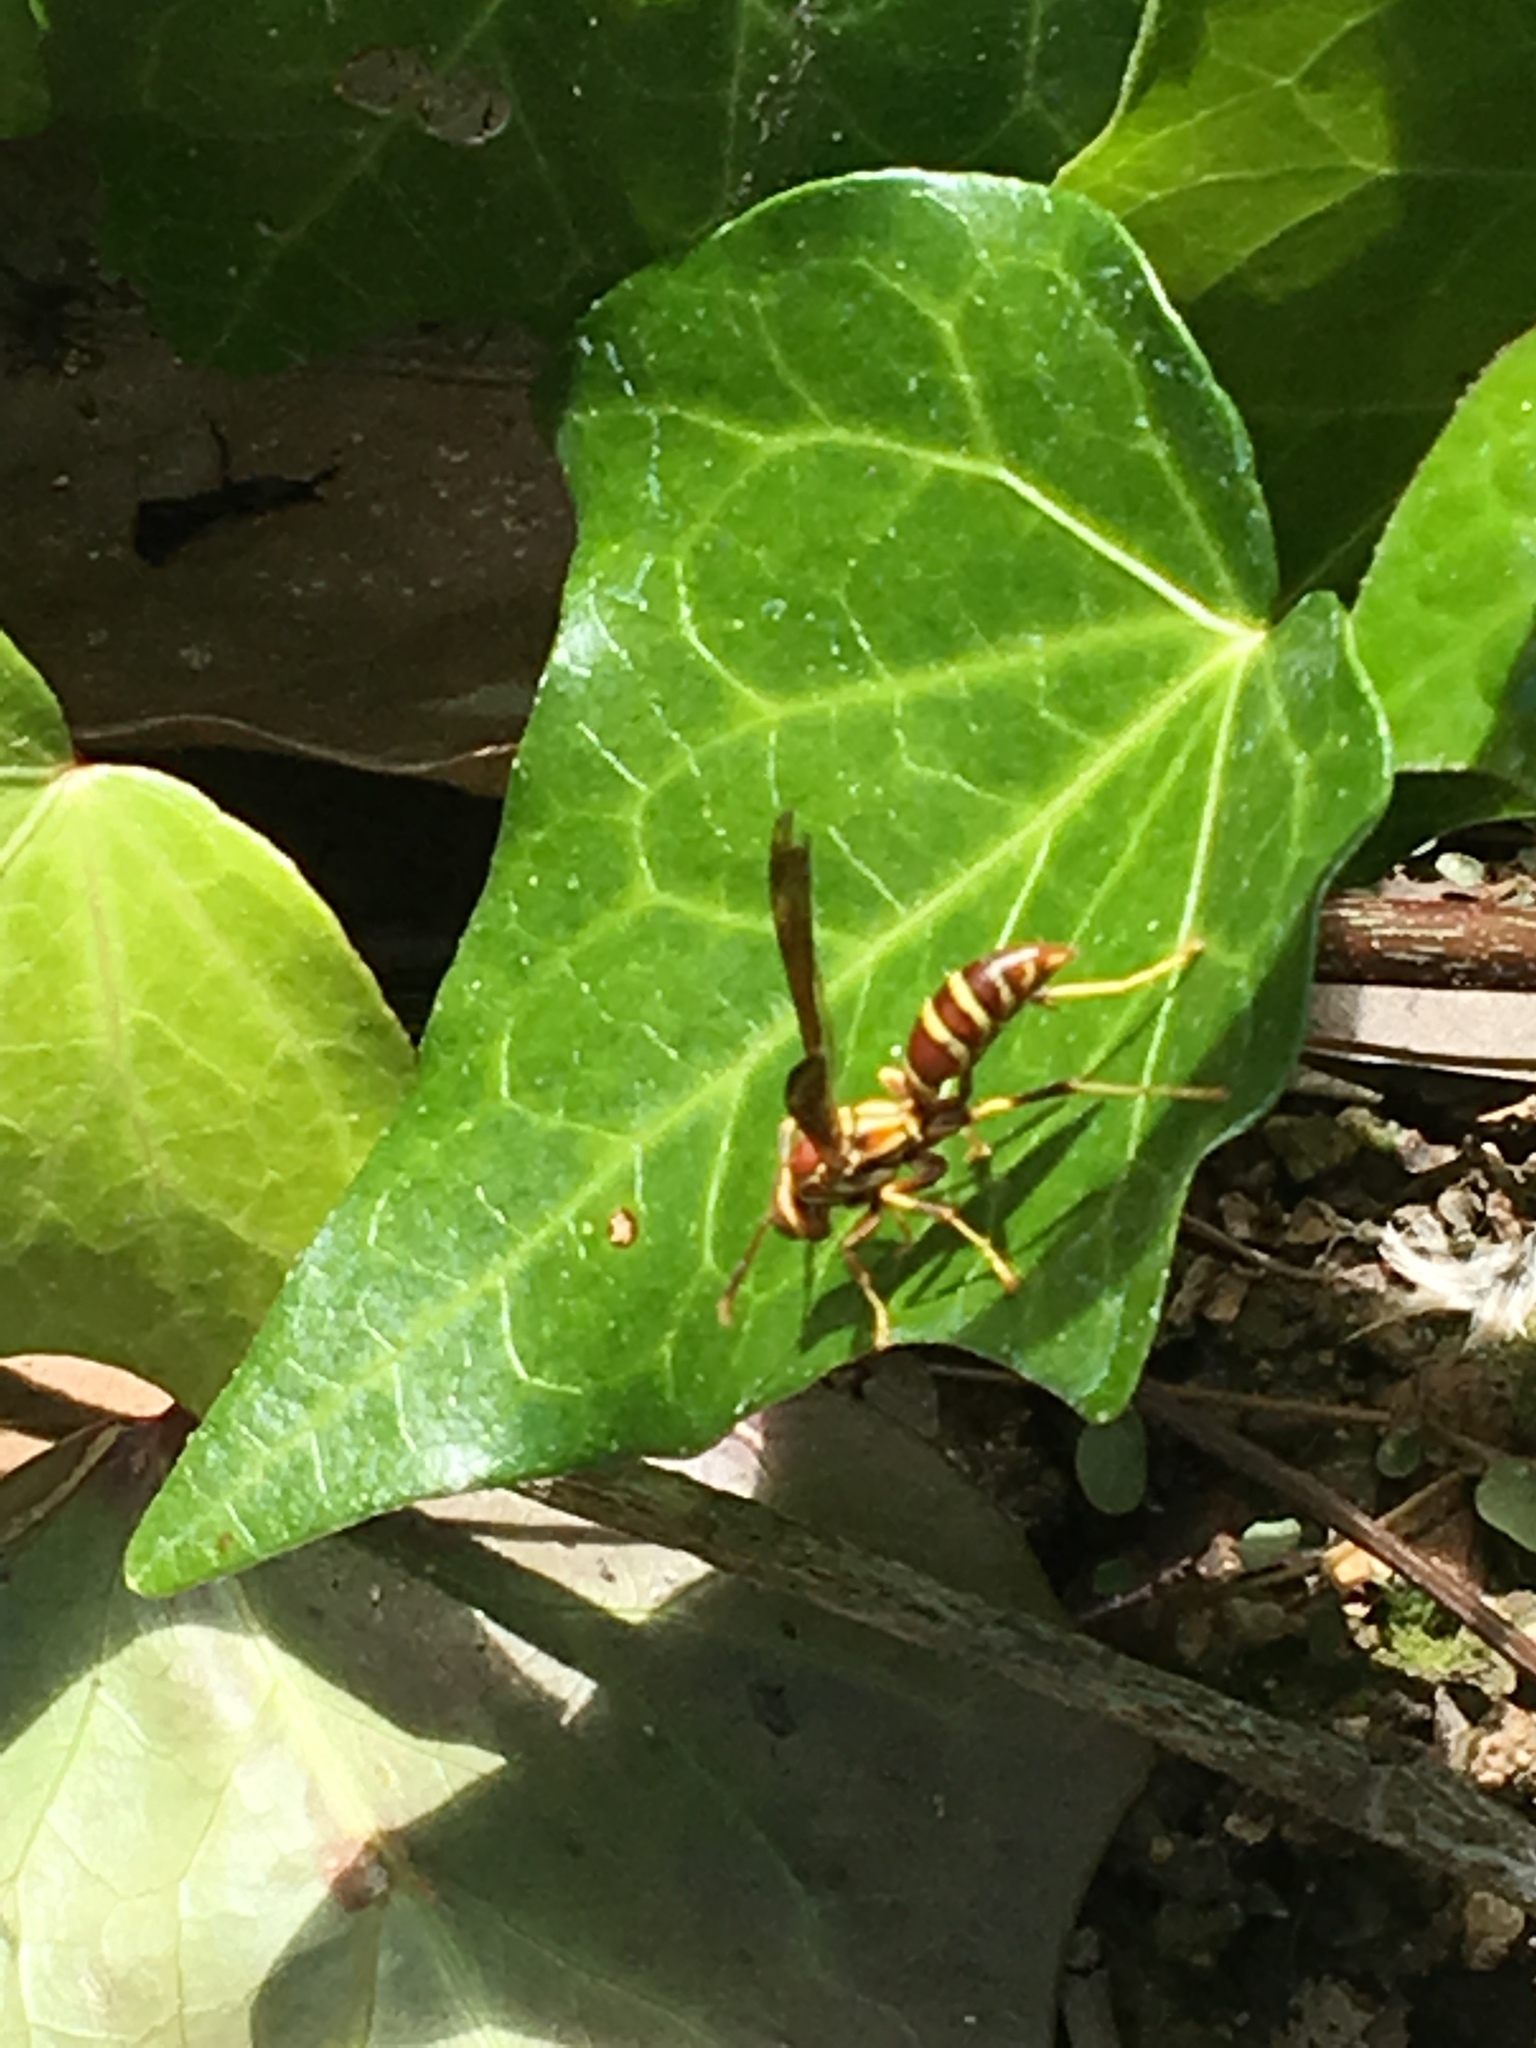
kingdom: Animalia
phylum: Arthropoda
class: Insecta
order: Hymenoptera
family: Eumenidae
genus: Polistes
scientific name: Polistes exclamans
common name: Paper wasp
